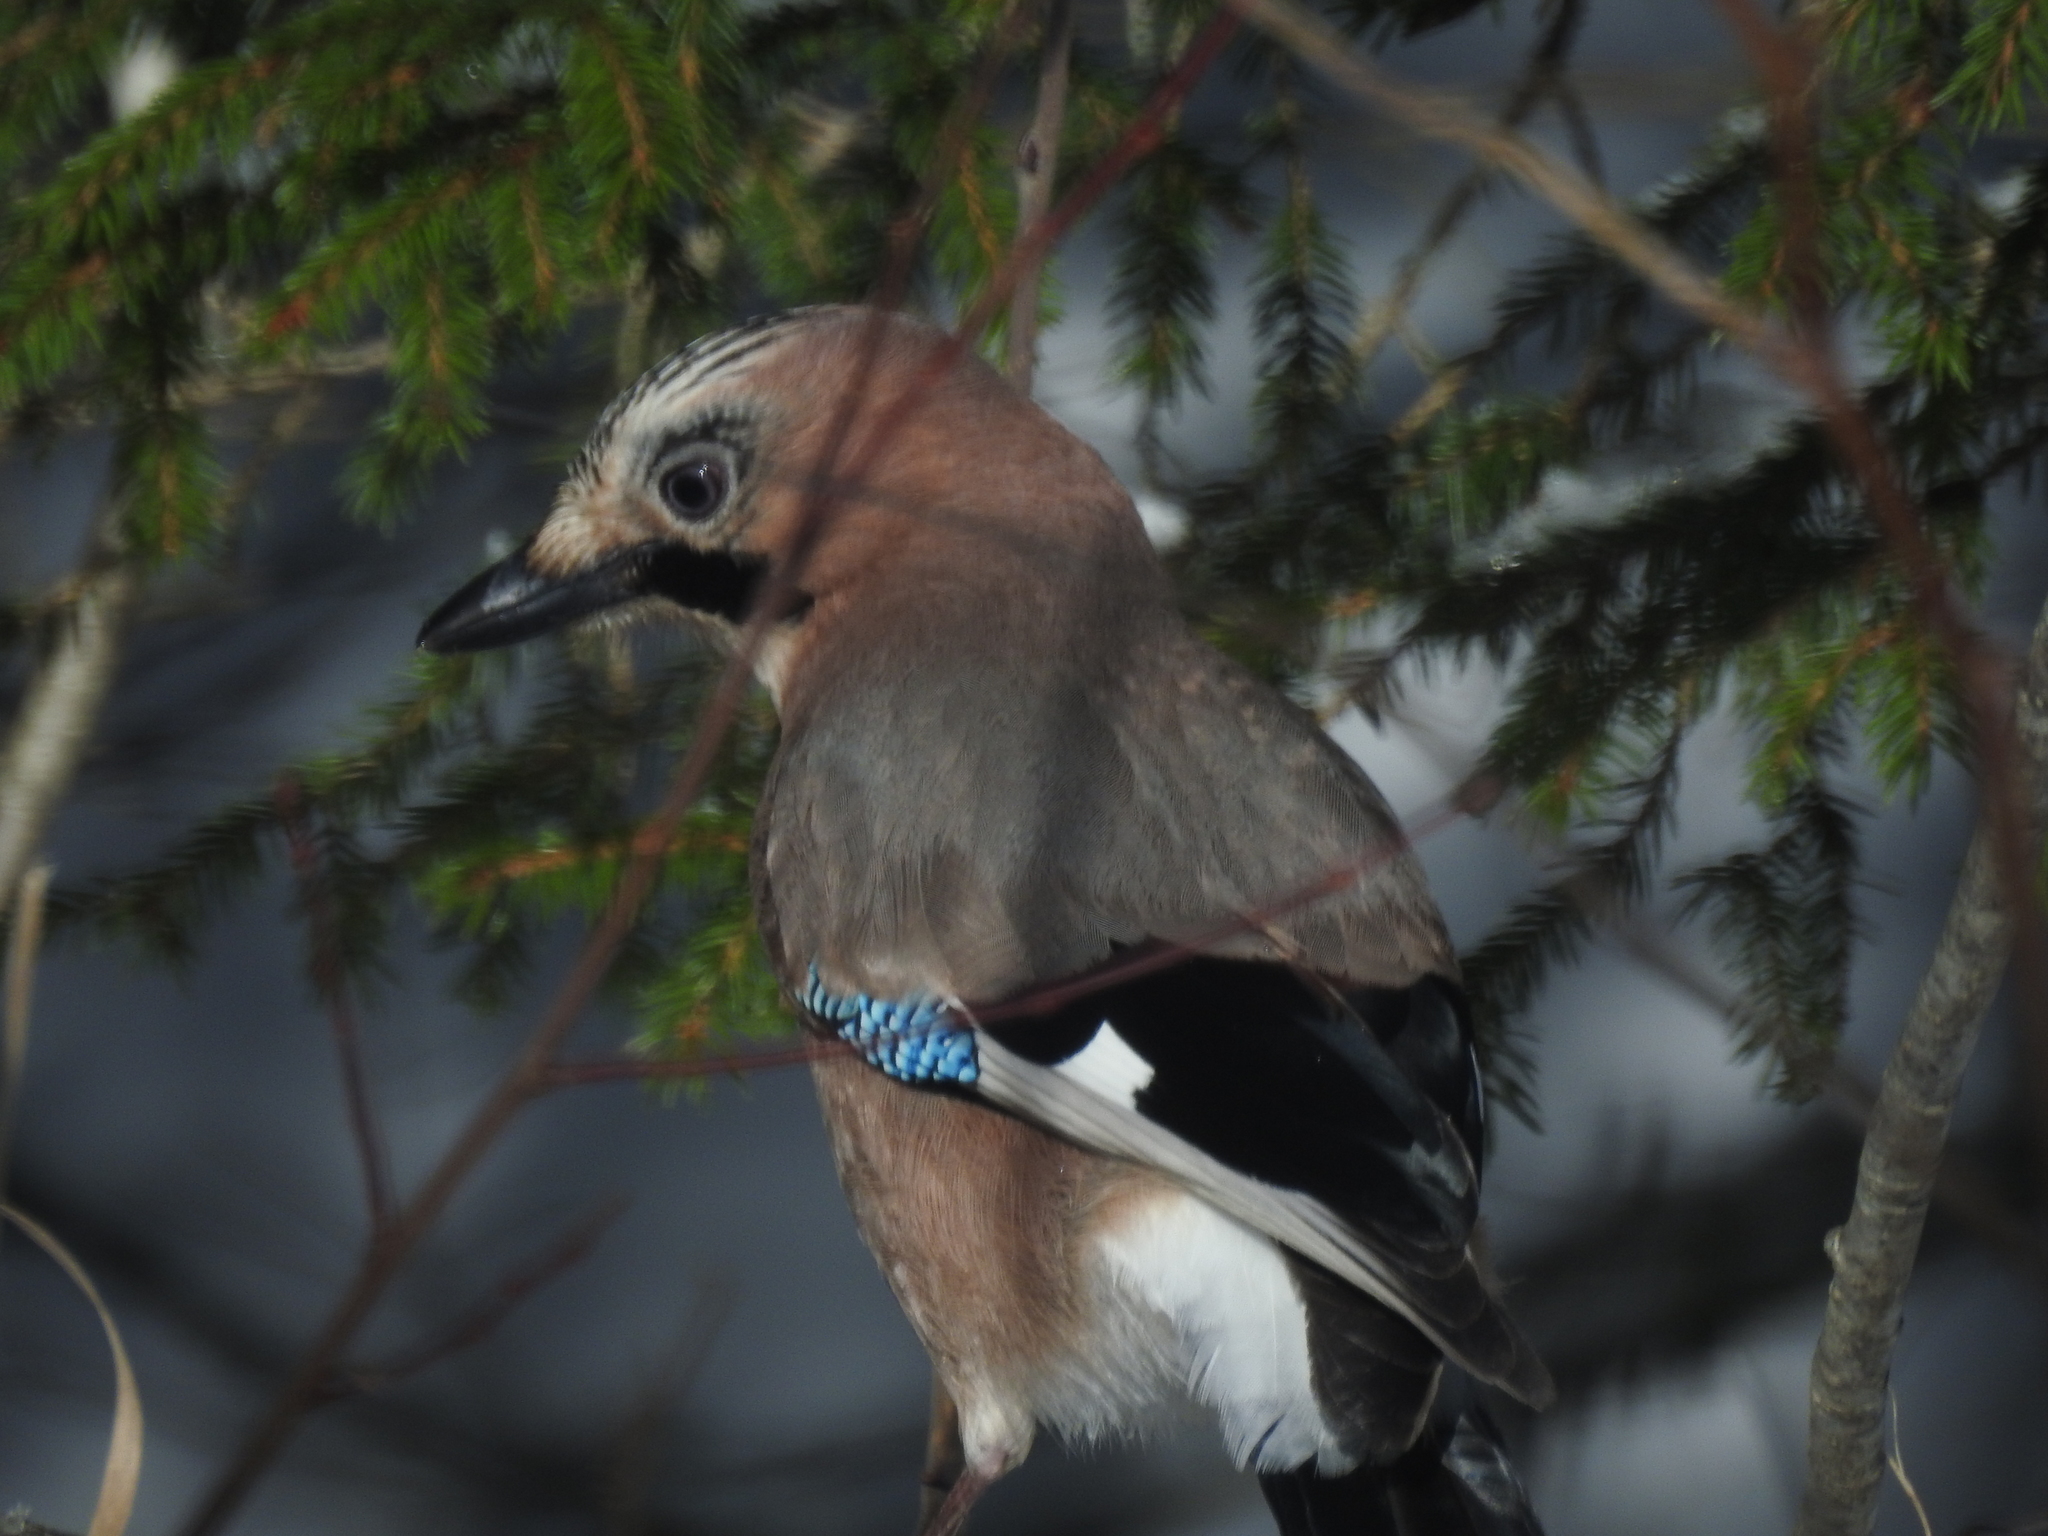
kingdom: Animalia
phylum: Chordata
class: Aves
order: Passeriformes
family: Corvidae
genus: Garrulus
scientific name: Garrulus glandarius
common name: Eurasian jay
